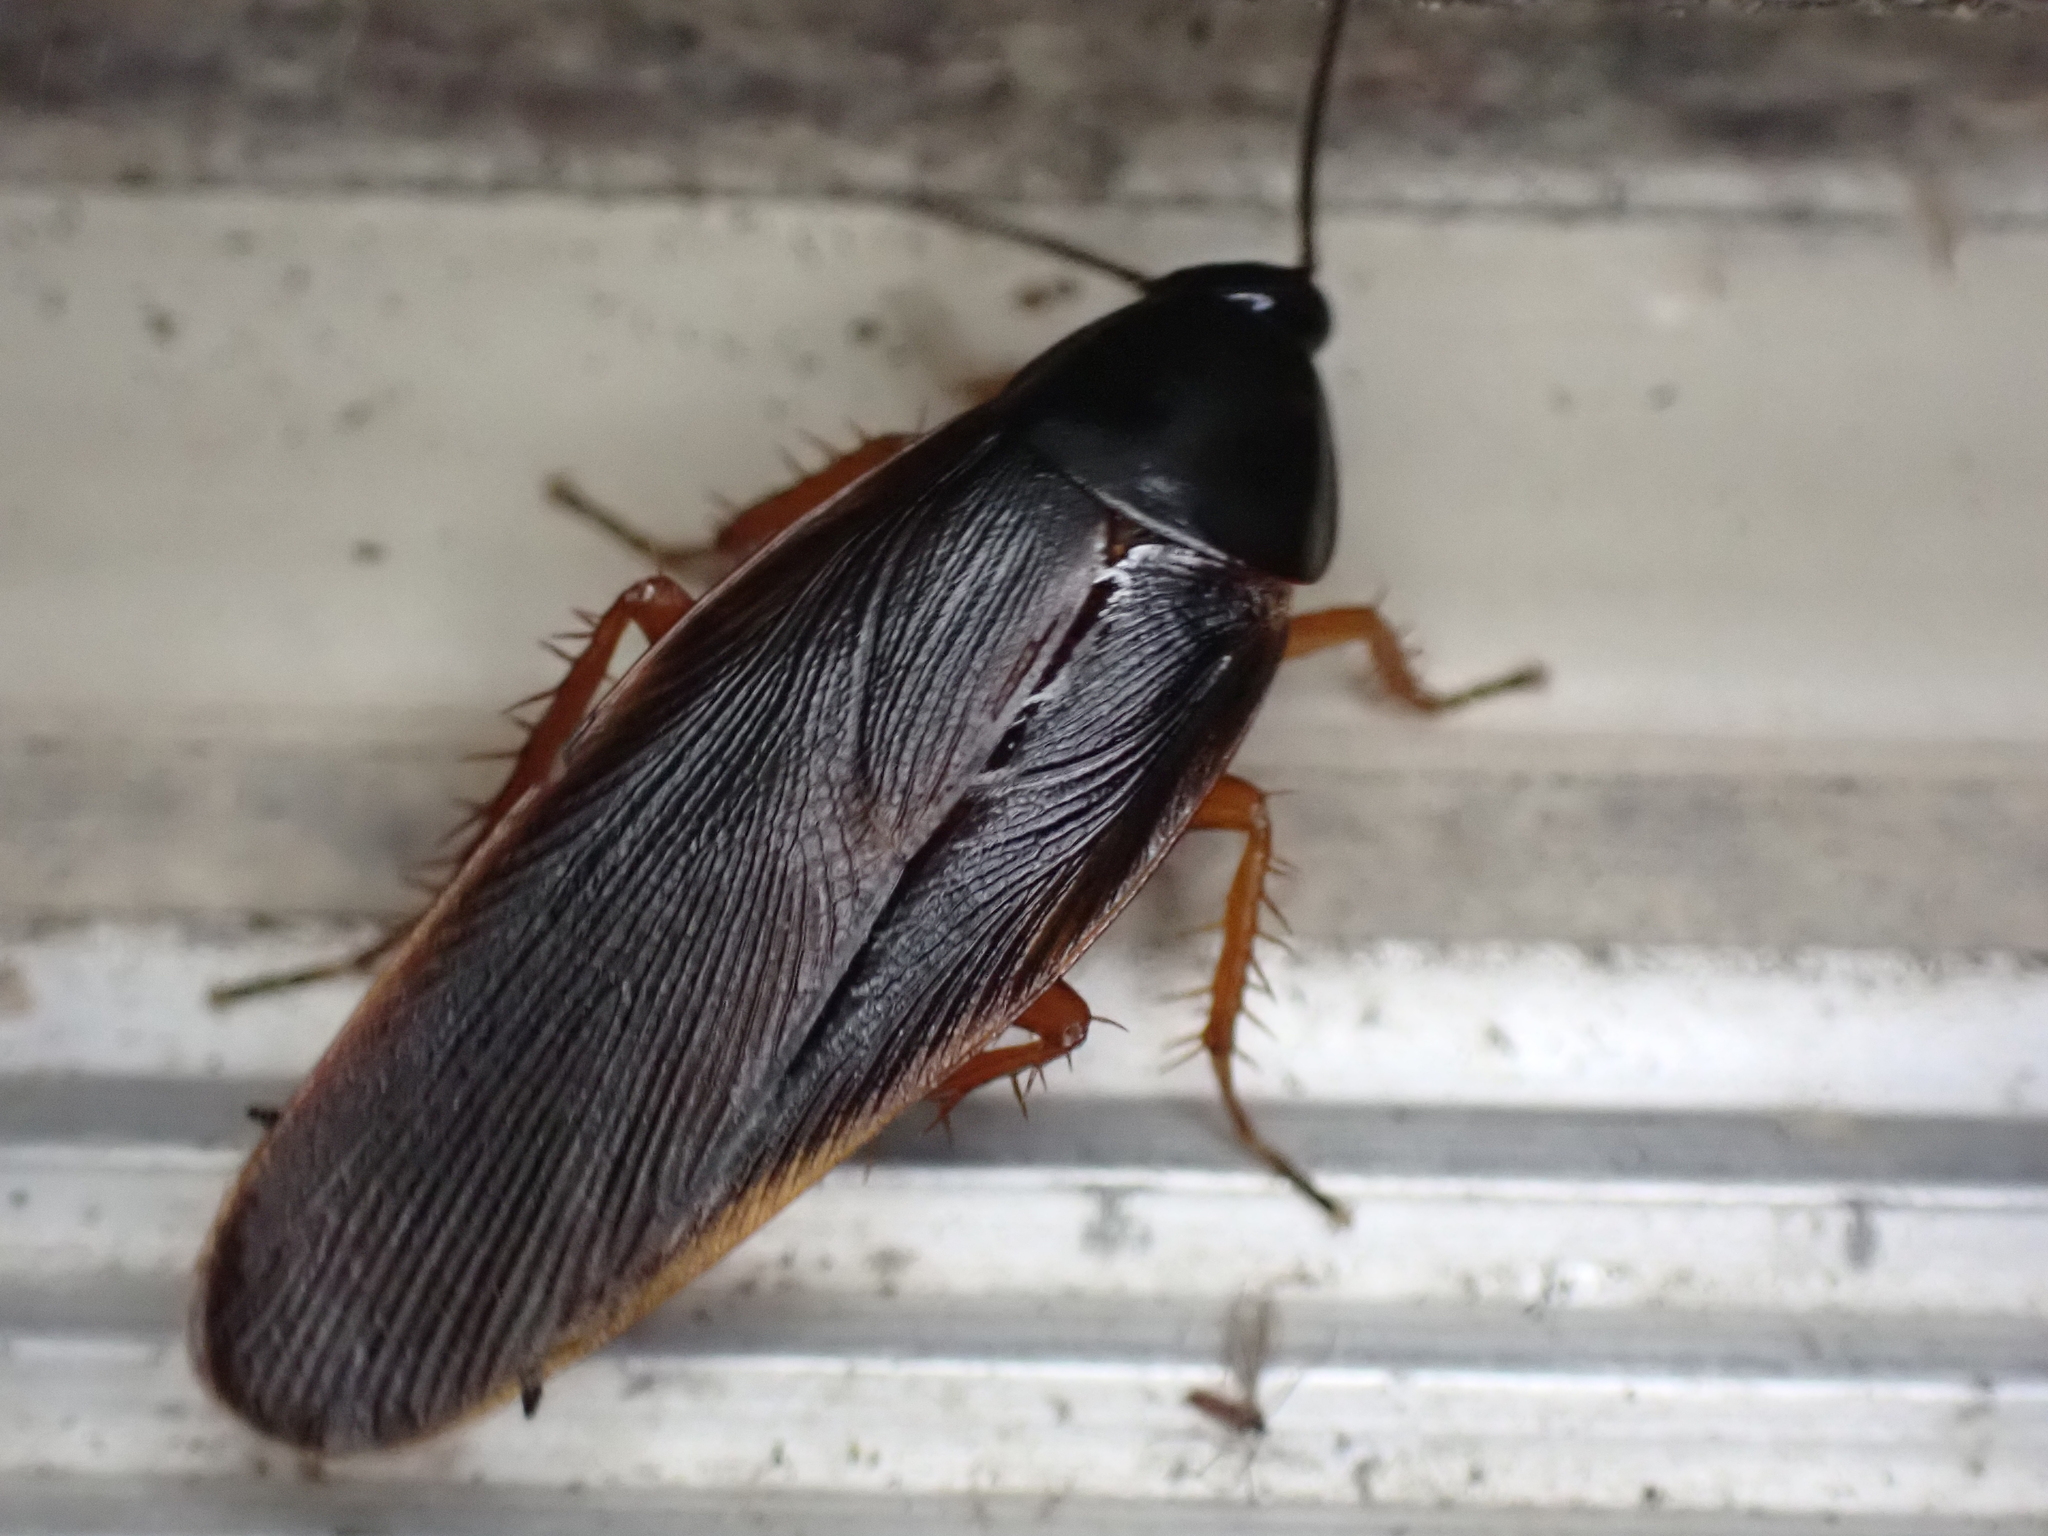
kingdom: Animalia
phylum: Arthropoda
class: Insecta
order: Blattodea
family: Ectobiidae
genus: Ischnoptera
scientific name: Ischnoptera deropeltiformis
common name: Dark wood cockroach
